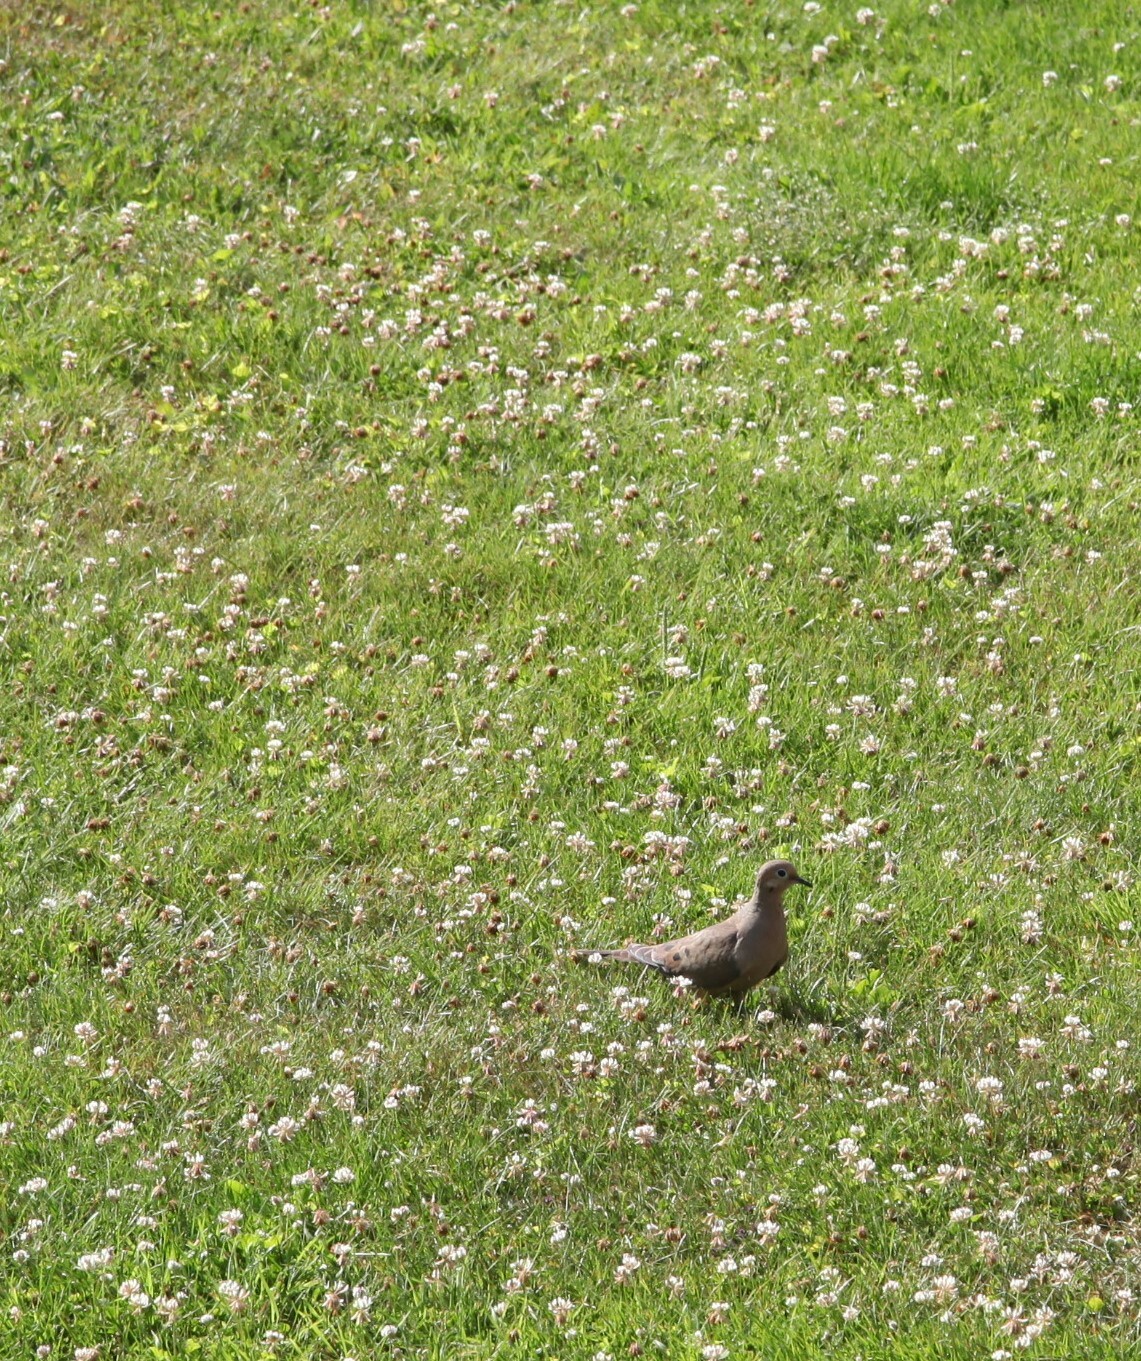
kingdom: Animalia
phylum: Chordata
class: Aves
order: Columbiformes
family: Columbidae
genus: Zenaida
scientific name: Zenaida macroura
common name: Mourning dove
